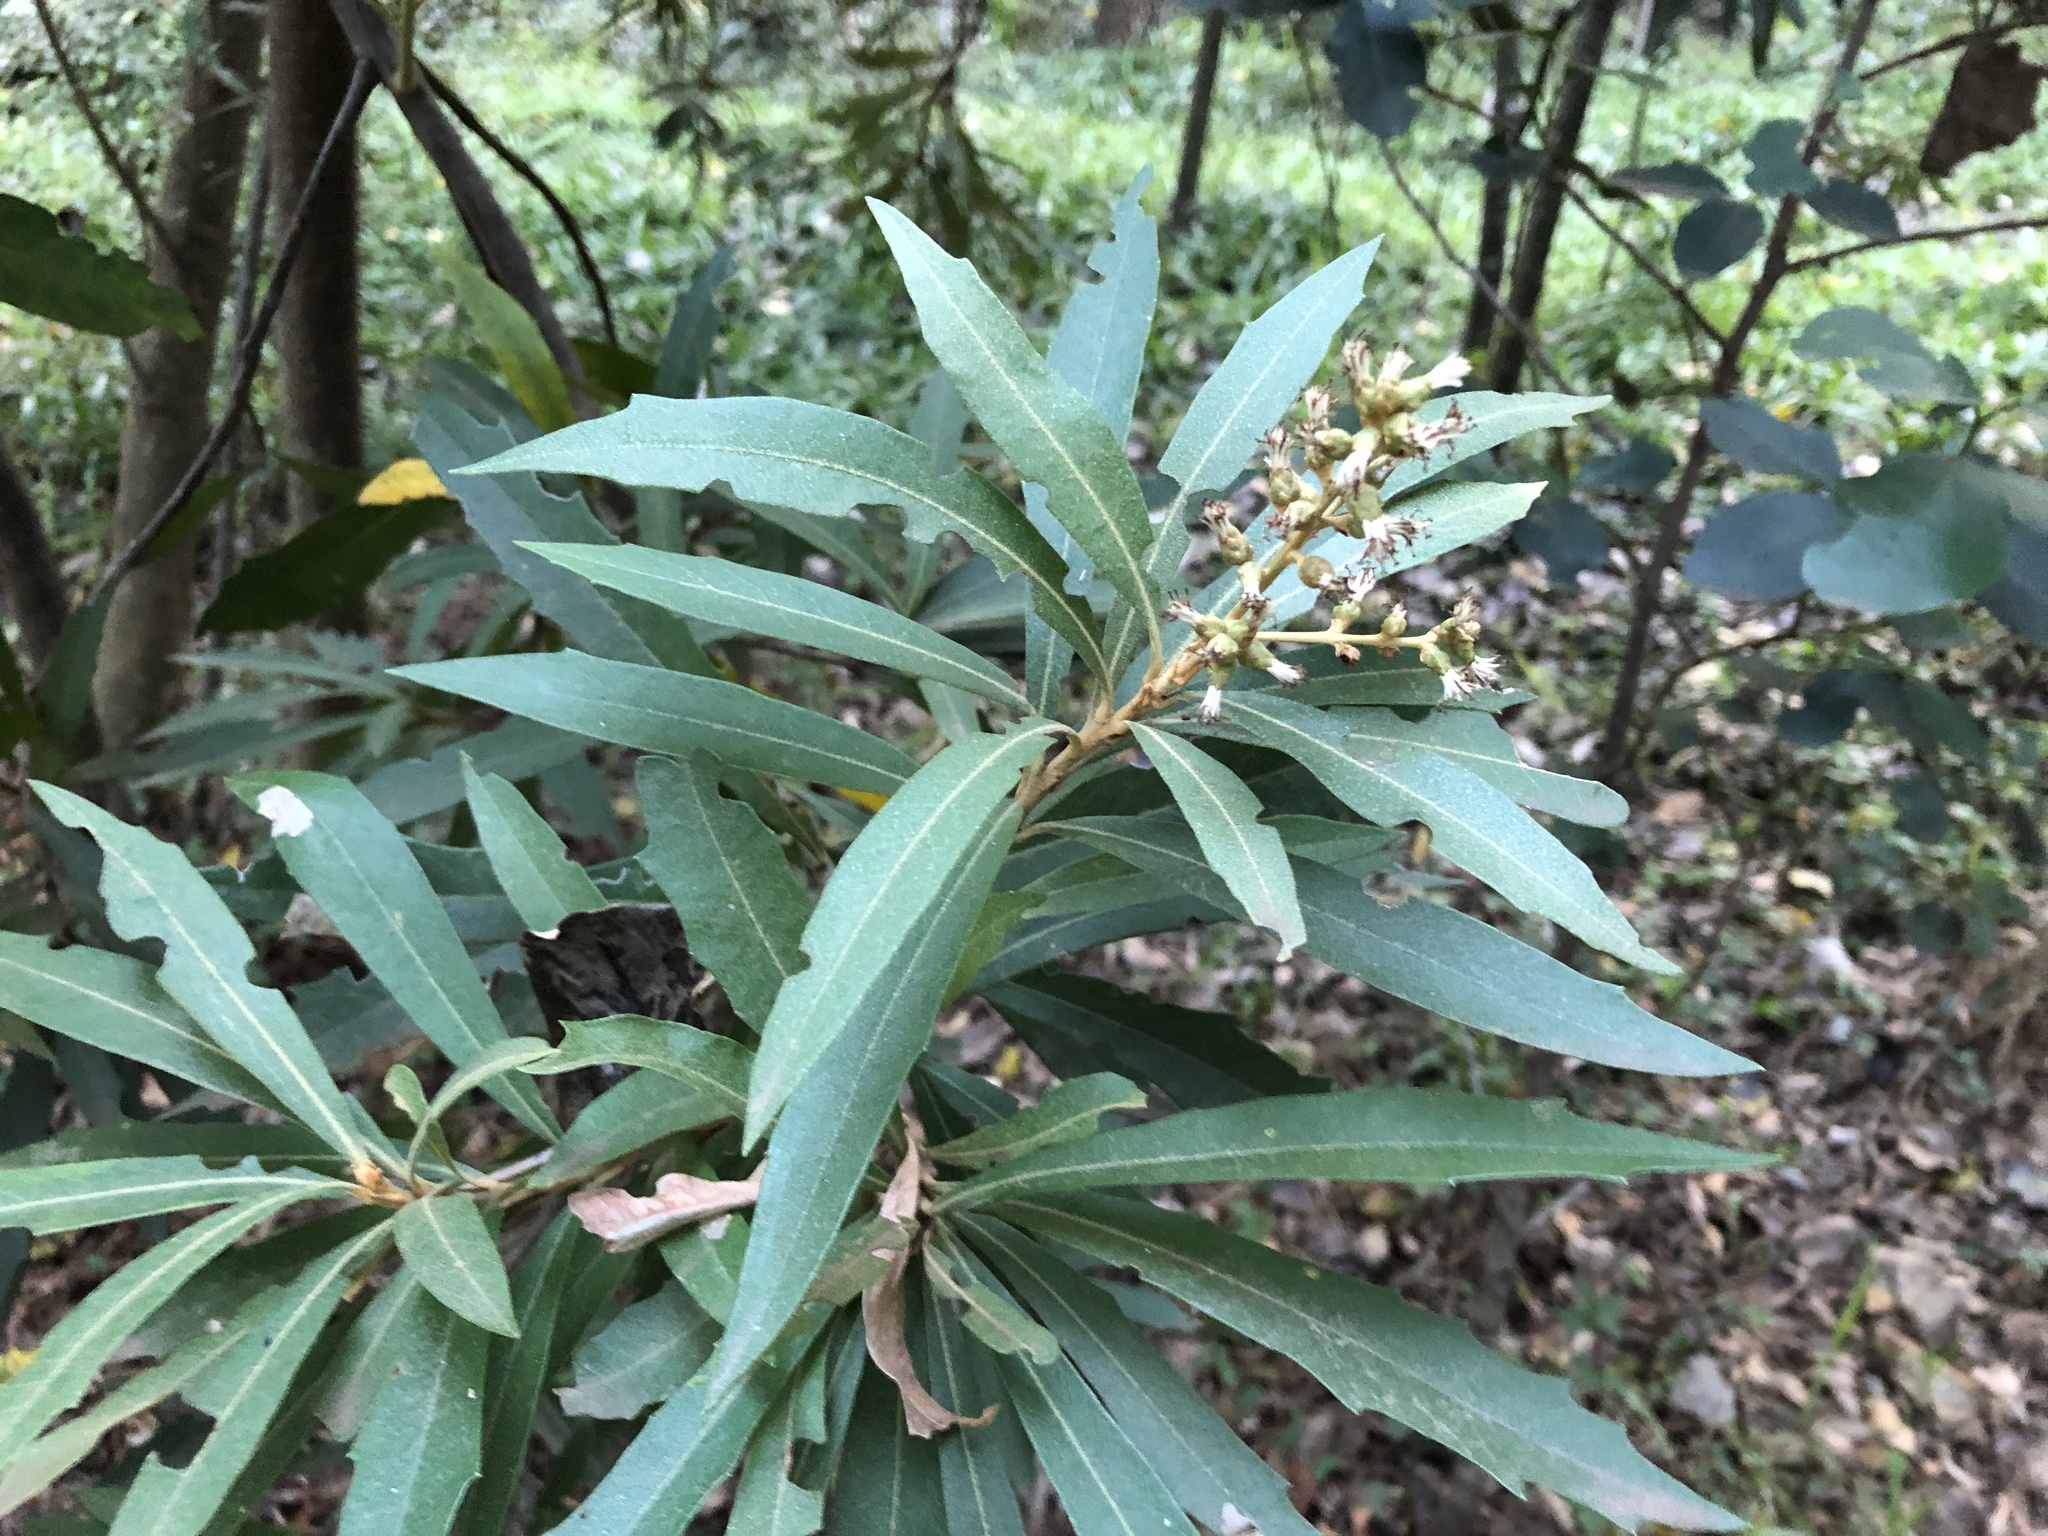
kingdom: Plantae
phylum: Tracheophyta
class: Magnoliopsida
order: Asterales
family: Asteraceae
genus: Brachylaena
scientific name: Brachylaena neriifolia
